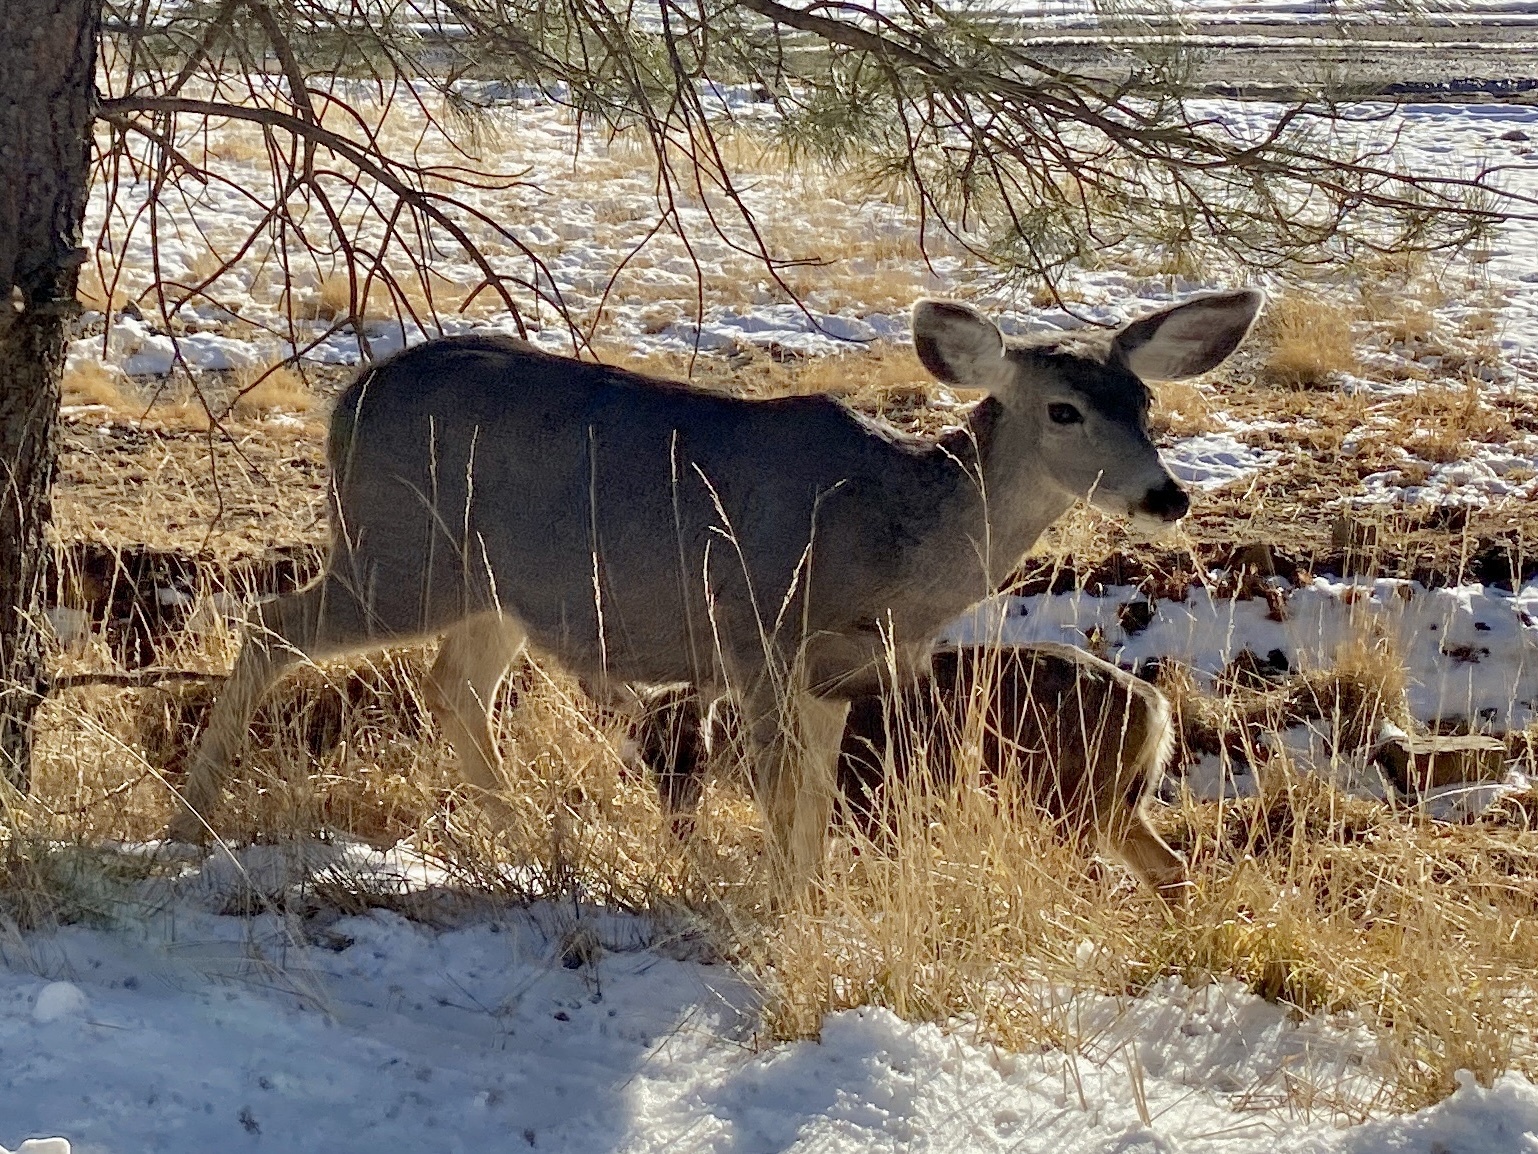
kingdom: Animalia
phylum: Chordata
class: Mammalia
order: Artiodactyla
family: Cervidae
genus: Odocoileus
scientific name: Odocoileus hemionus
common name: Mule deer
